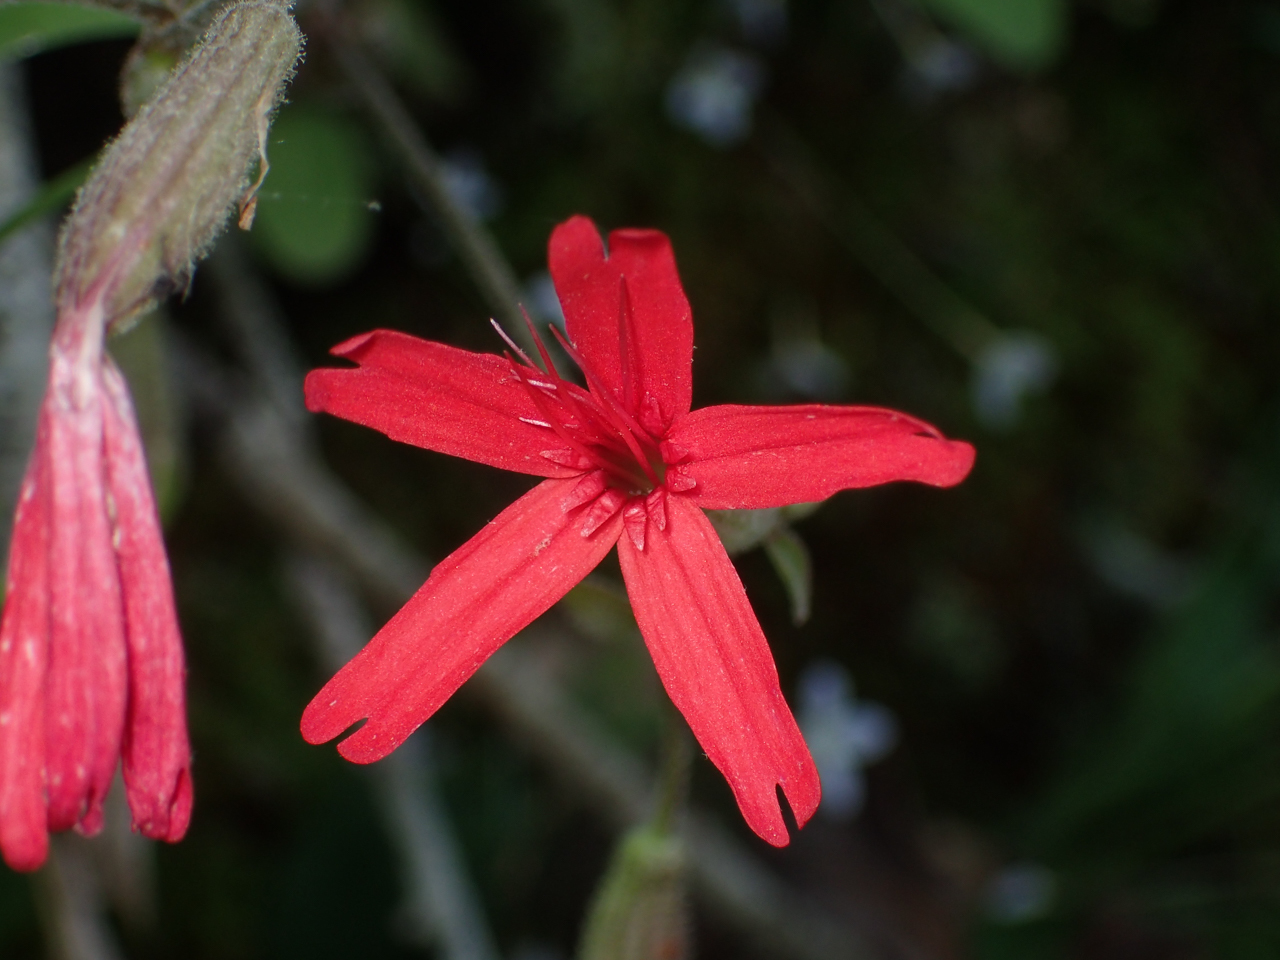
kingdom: Plantae
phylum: Tracheophyta
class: Magnoliopsida
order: Caryophyllales
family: Caryophyllaceae
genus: Silene
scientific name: Silene virginica
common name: Fire-pink
